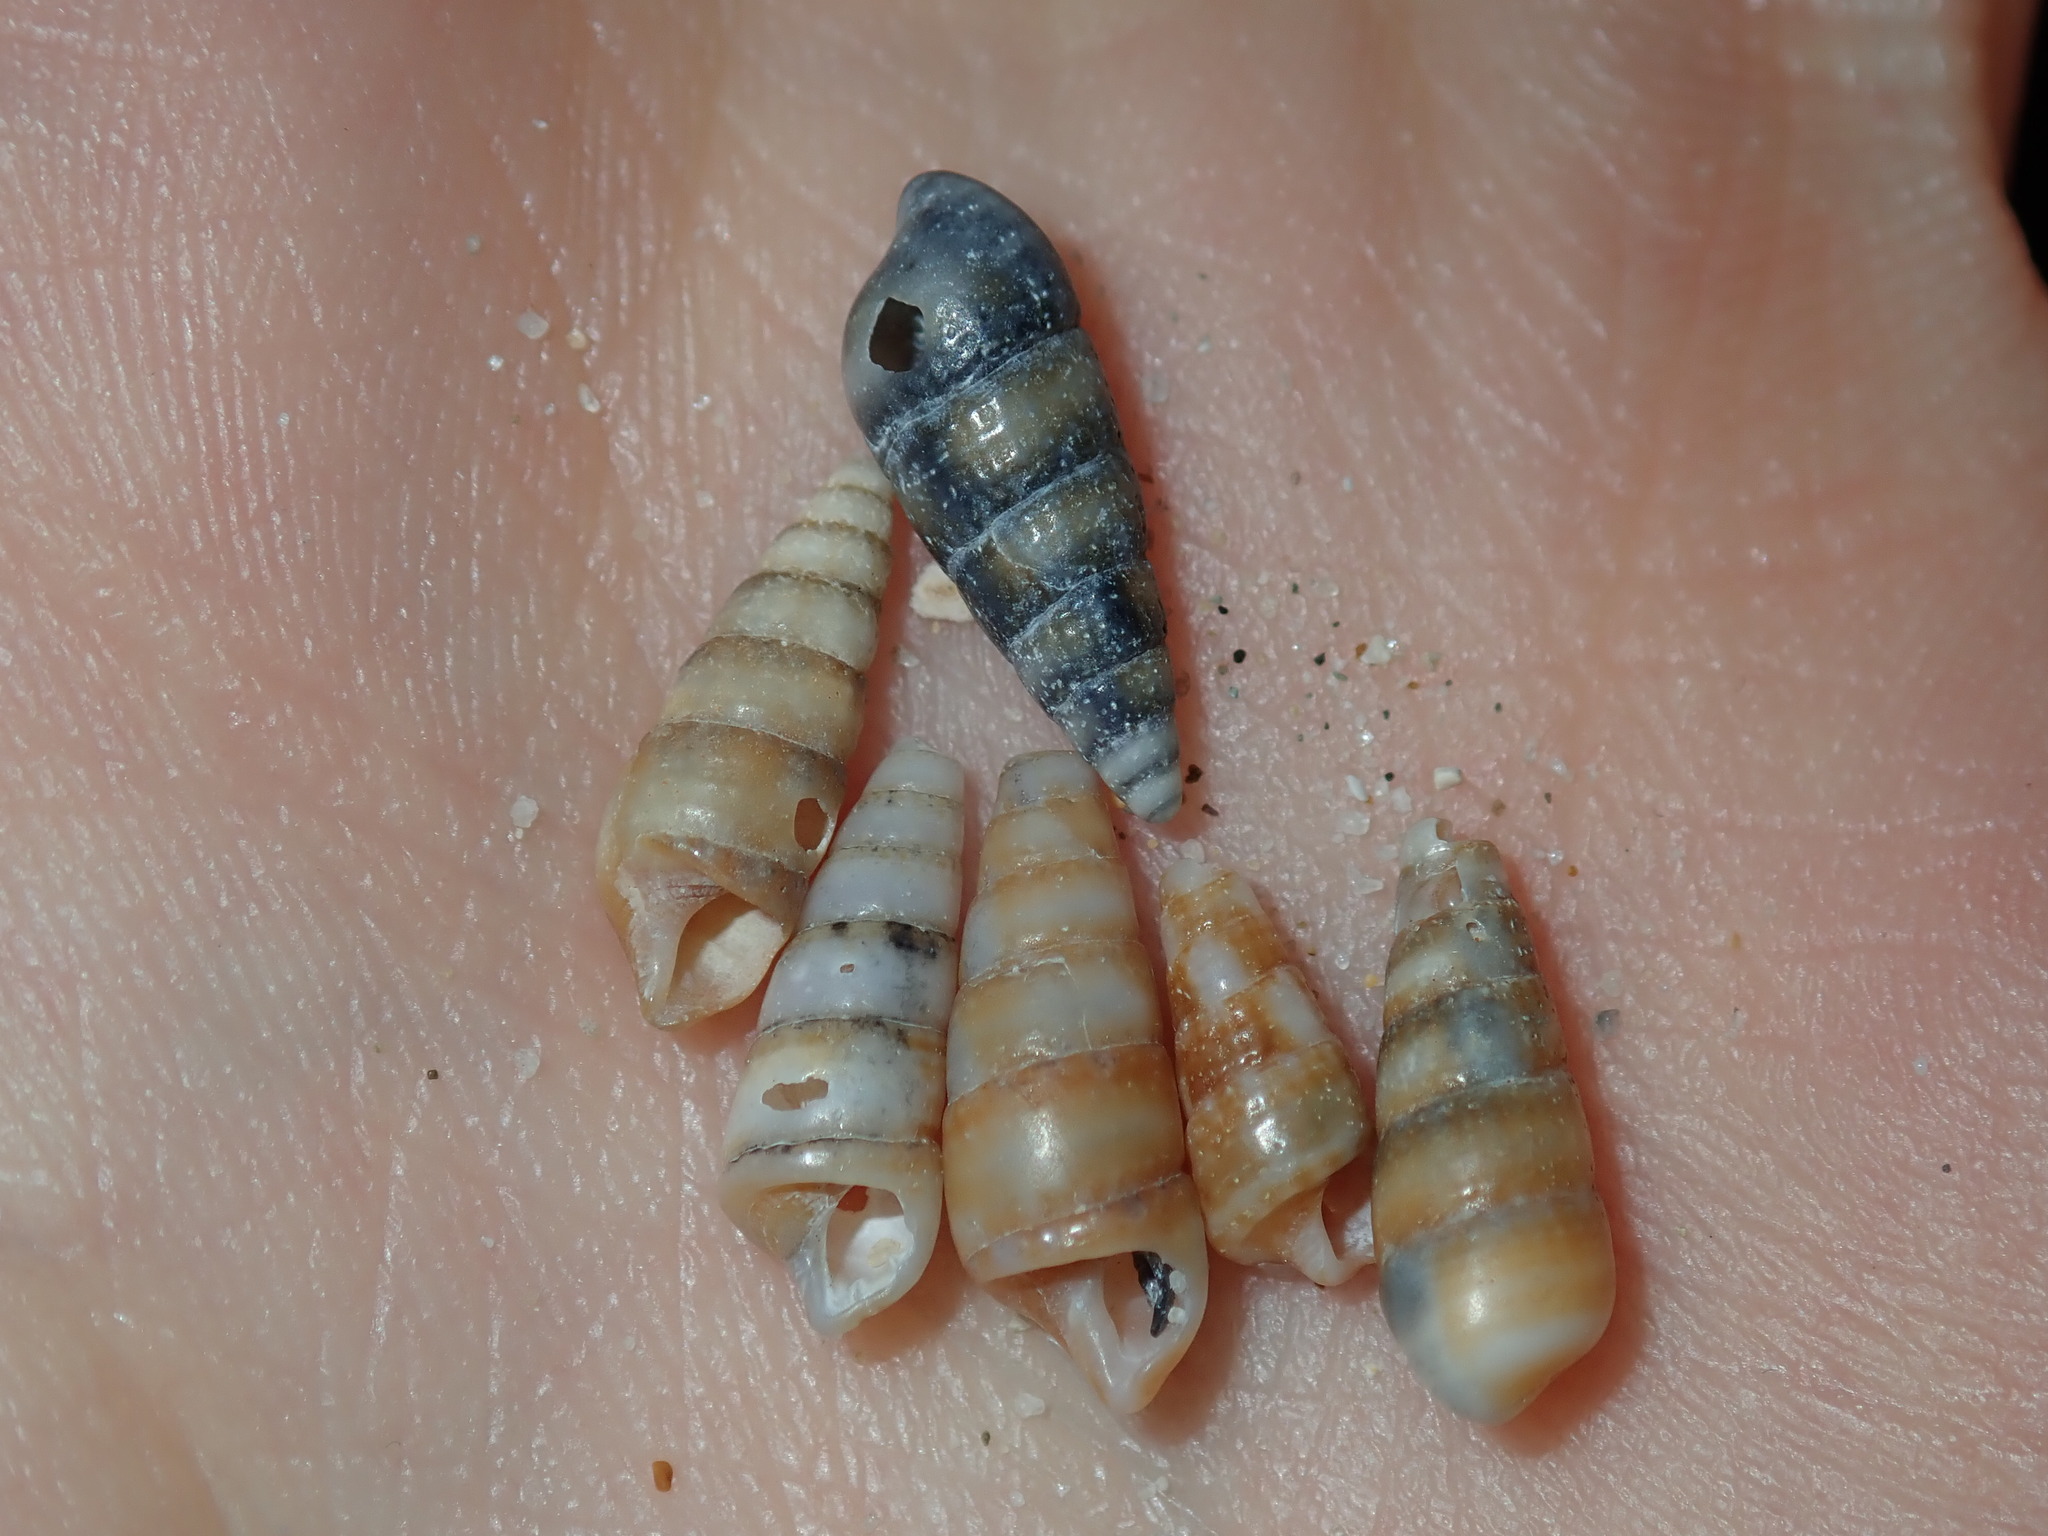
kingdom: Animalia
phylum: Mollusca
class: Gastropoda
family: Cerithiidae
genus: Cacozeliana
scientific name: Cacozeliana granarium
